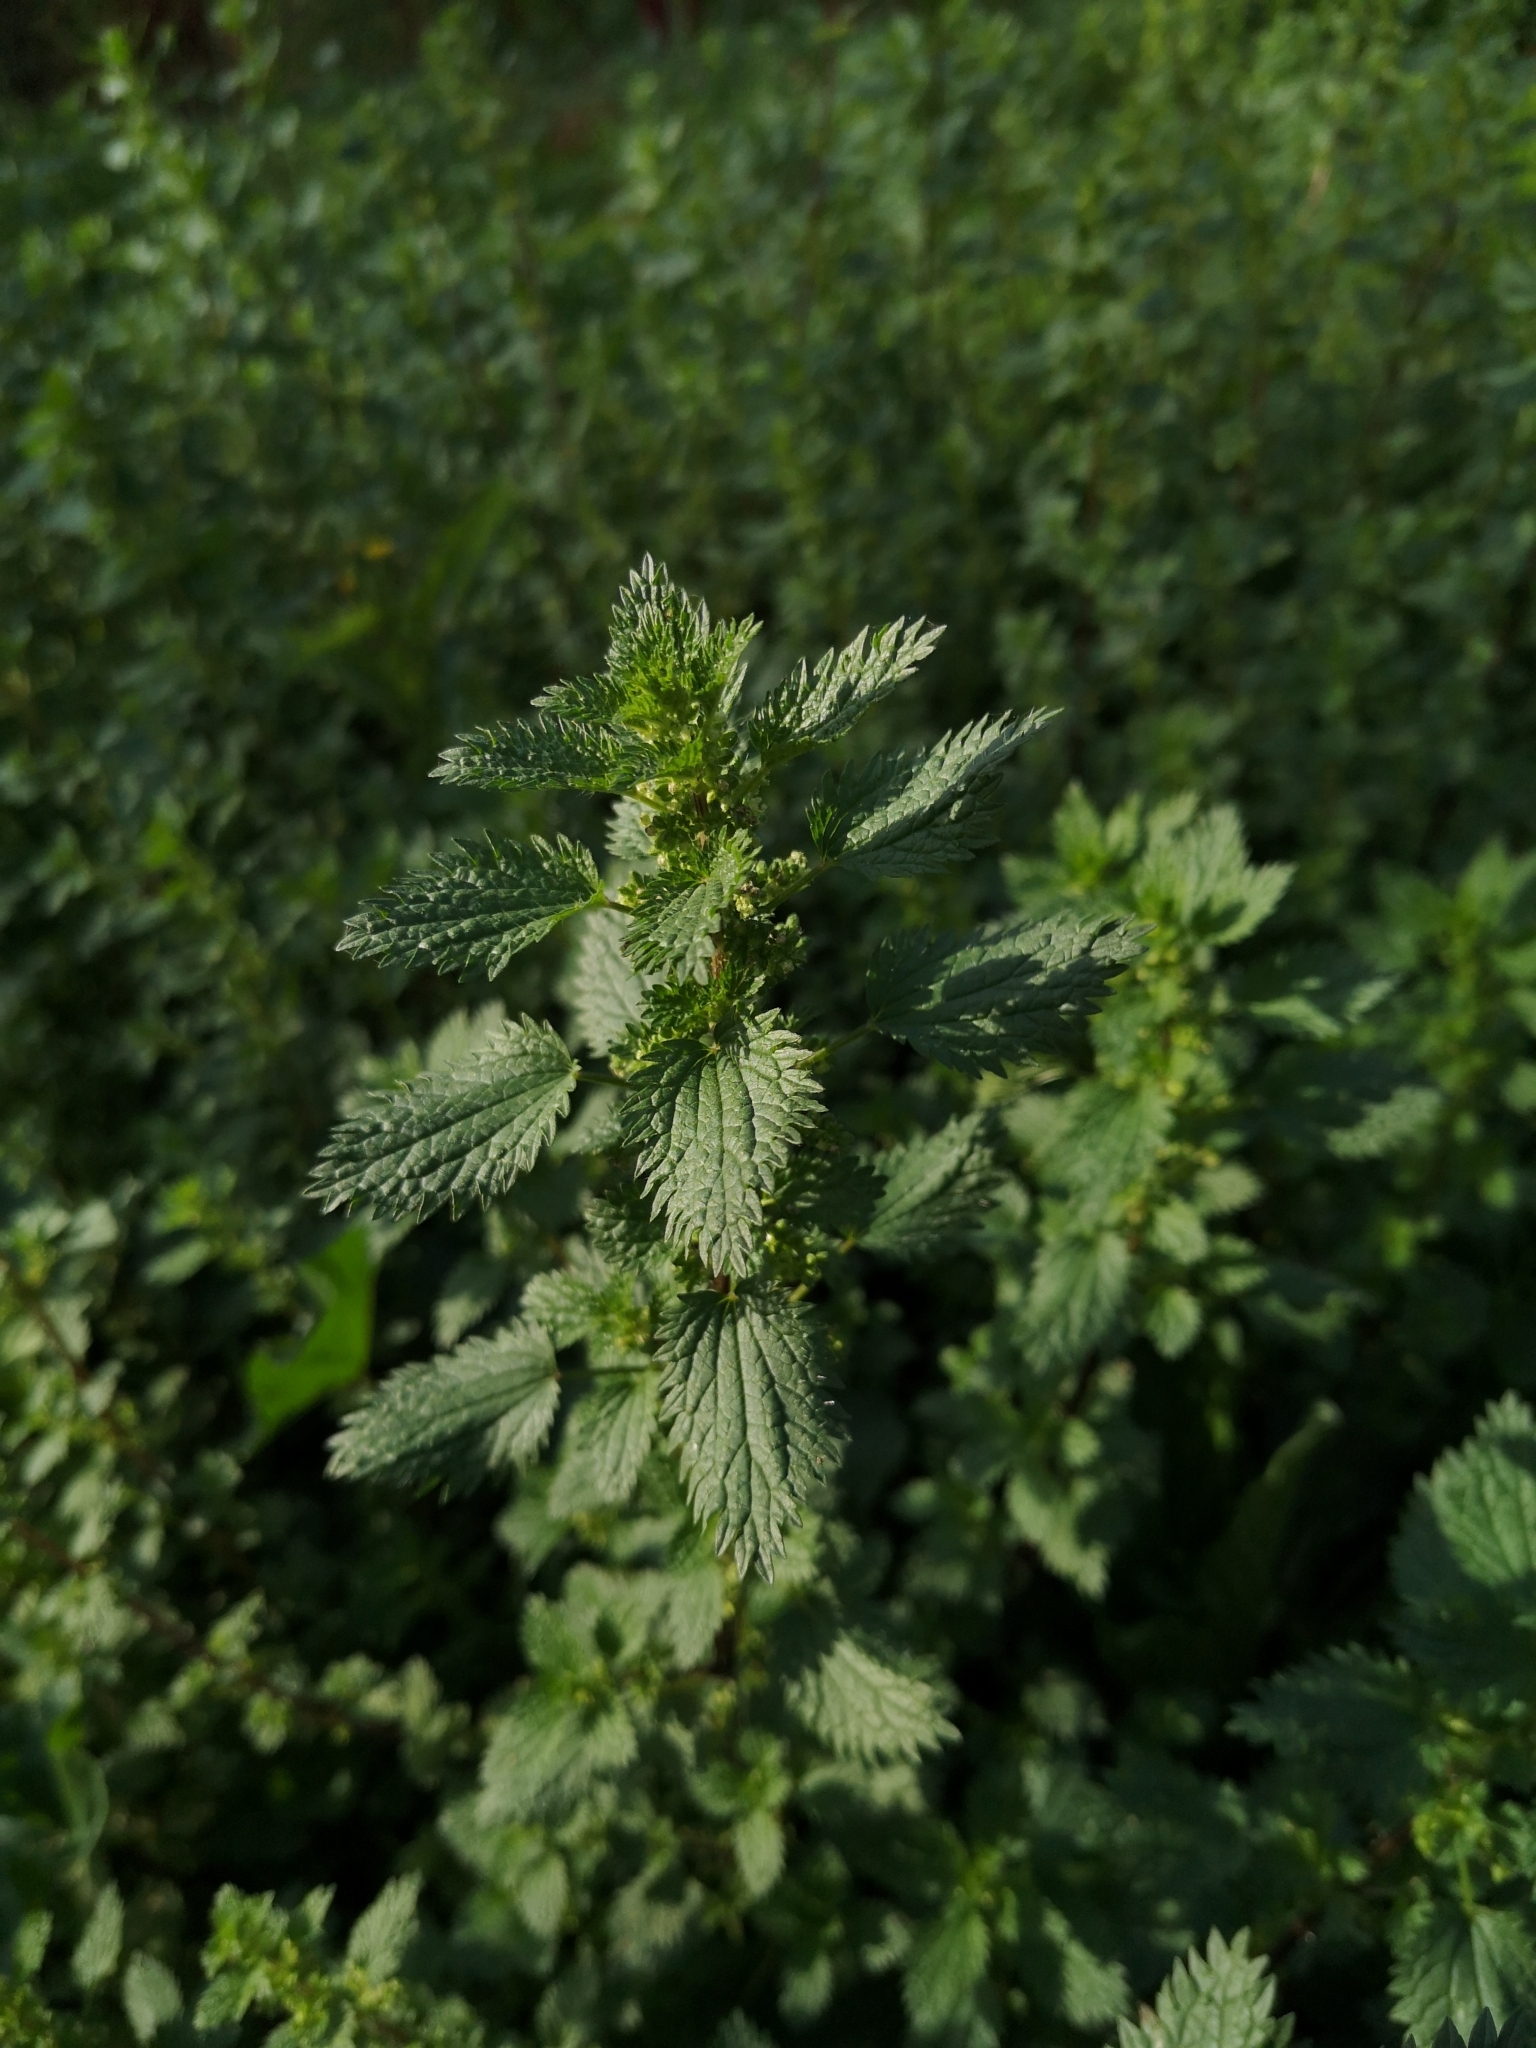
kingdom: Plantae
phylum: Tracheophyta
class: Magnoliopsida
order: Rosales
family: Urticaceae
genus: Urtica
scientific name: Urtica urens
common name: Dwarf nettle
